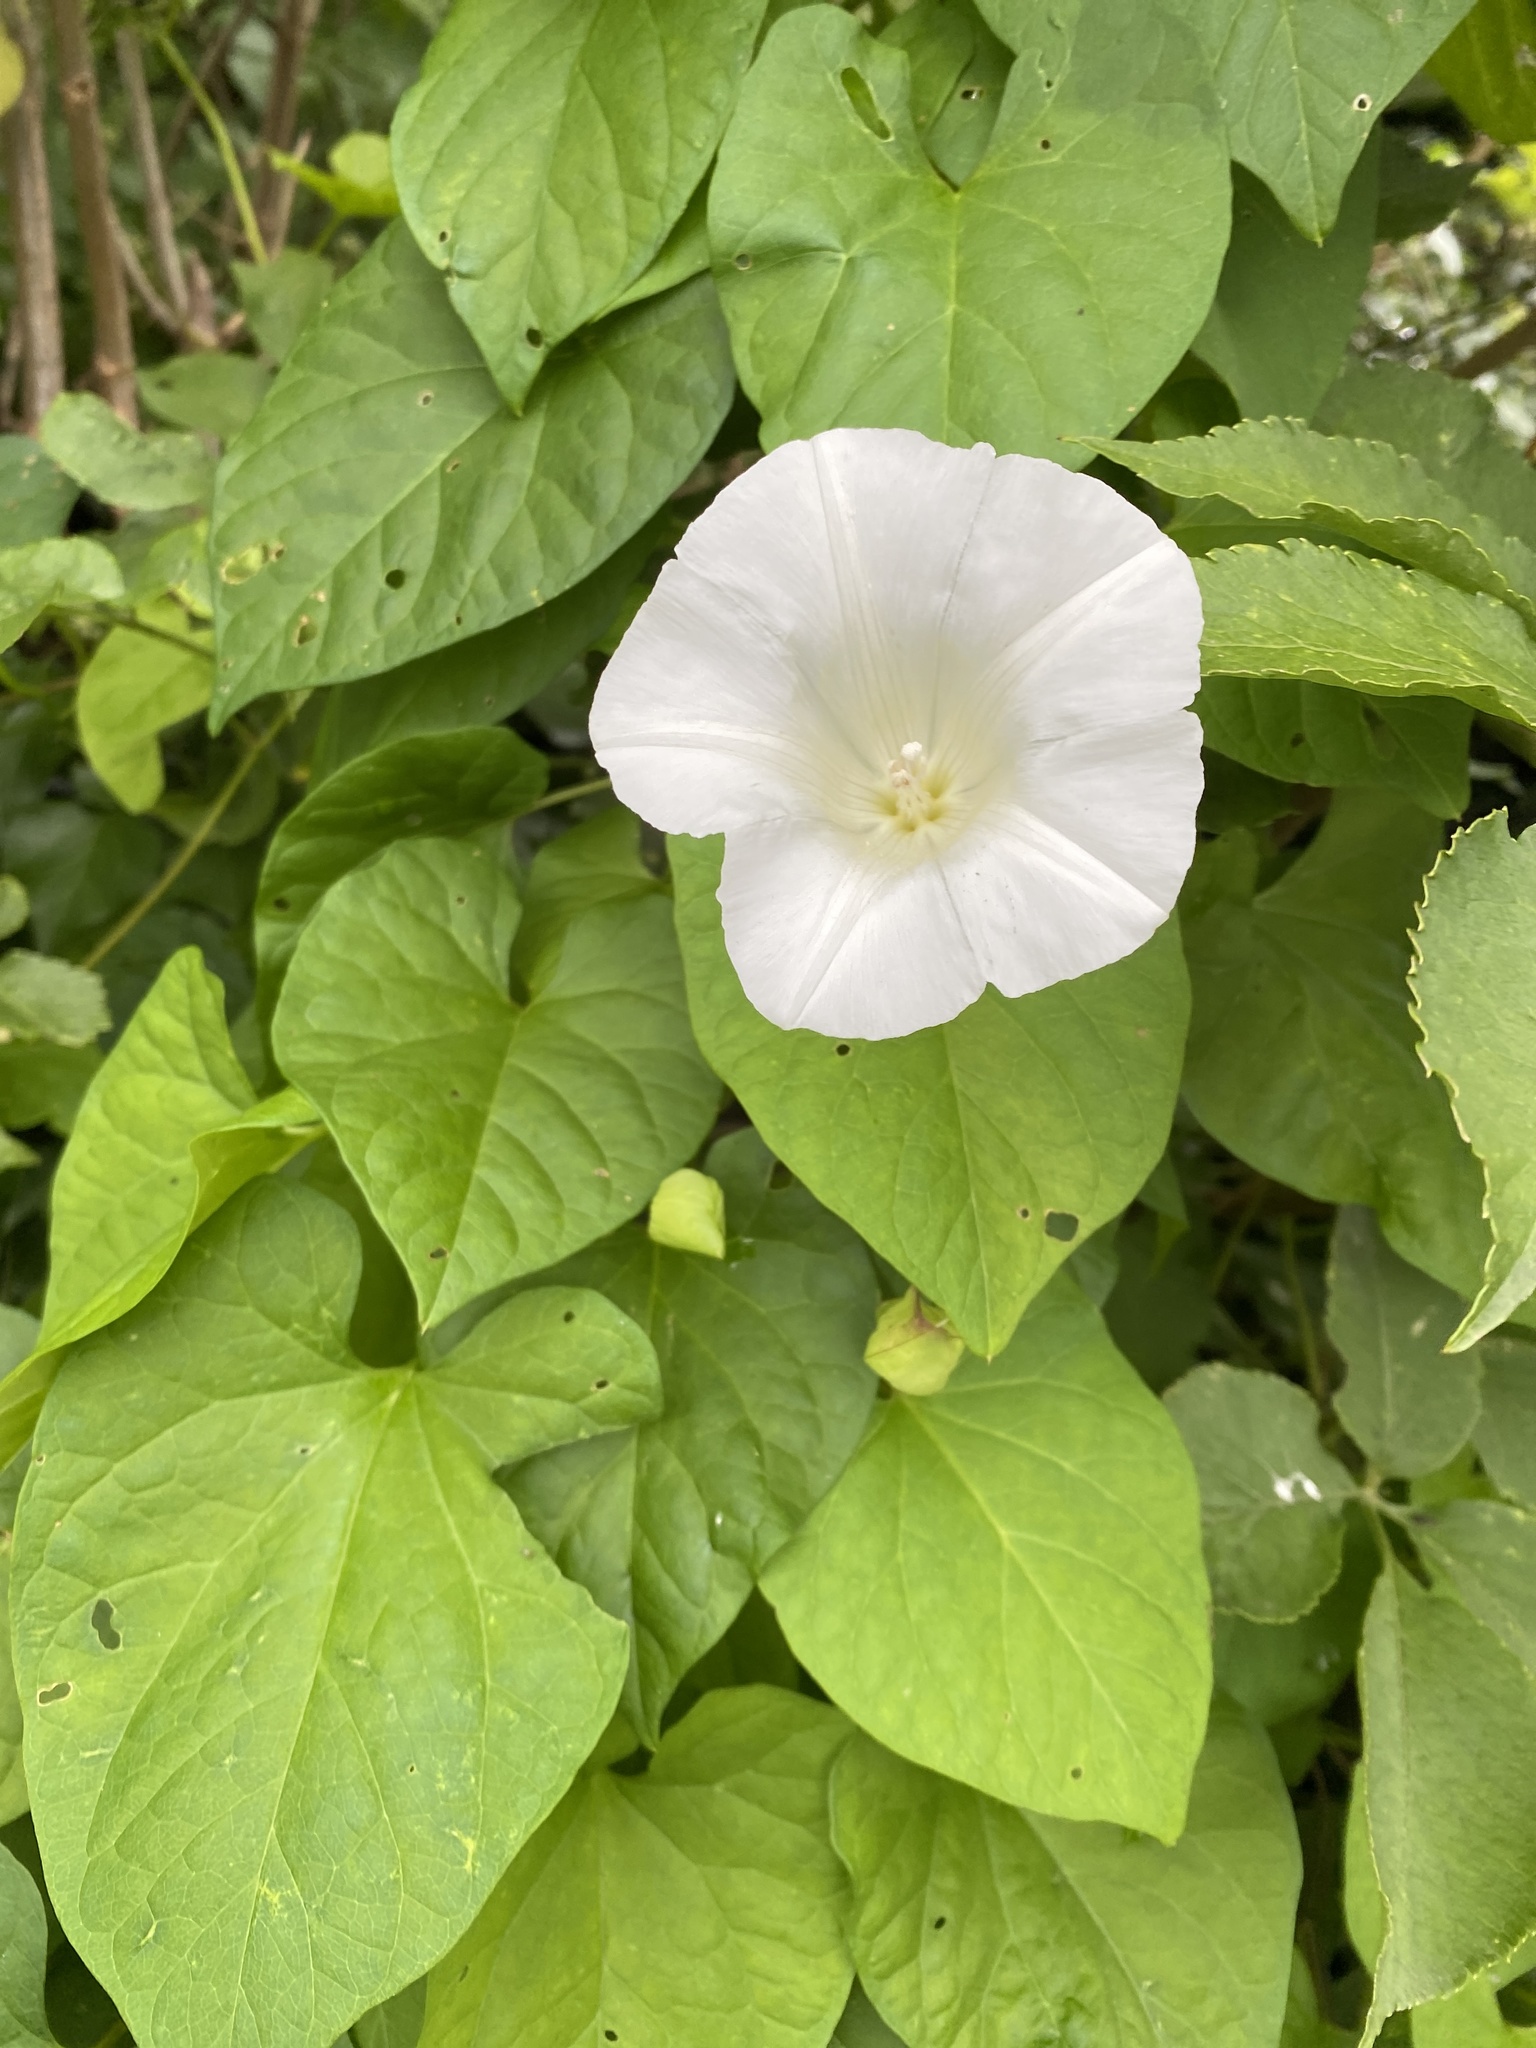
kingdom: Plantae
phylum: Tracheophyta
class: Magnoliopsida
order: Solanales
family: Convolvulaceae
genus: Calystegia
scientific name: Calystegia silvatica
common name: Large bindweed
